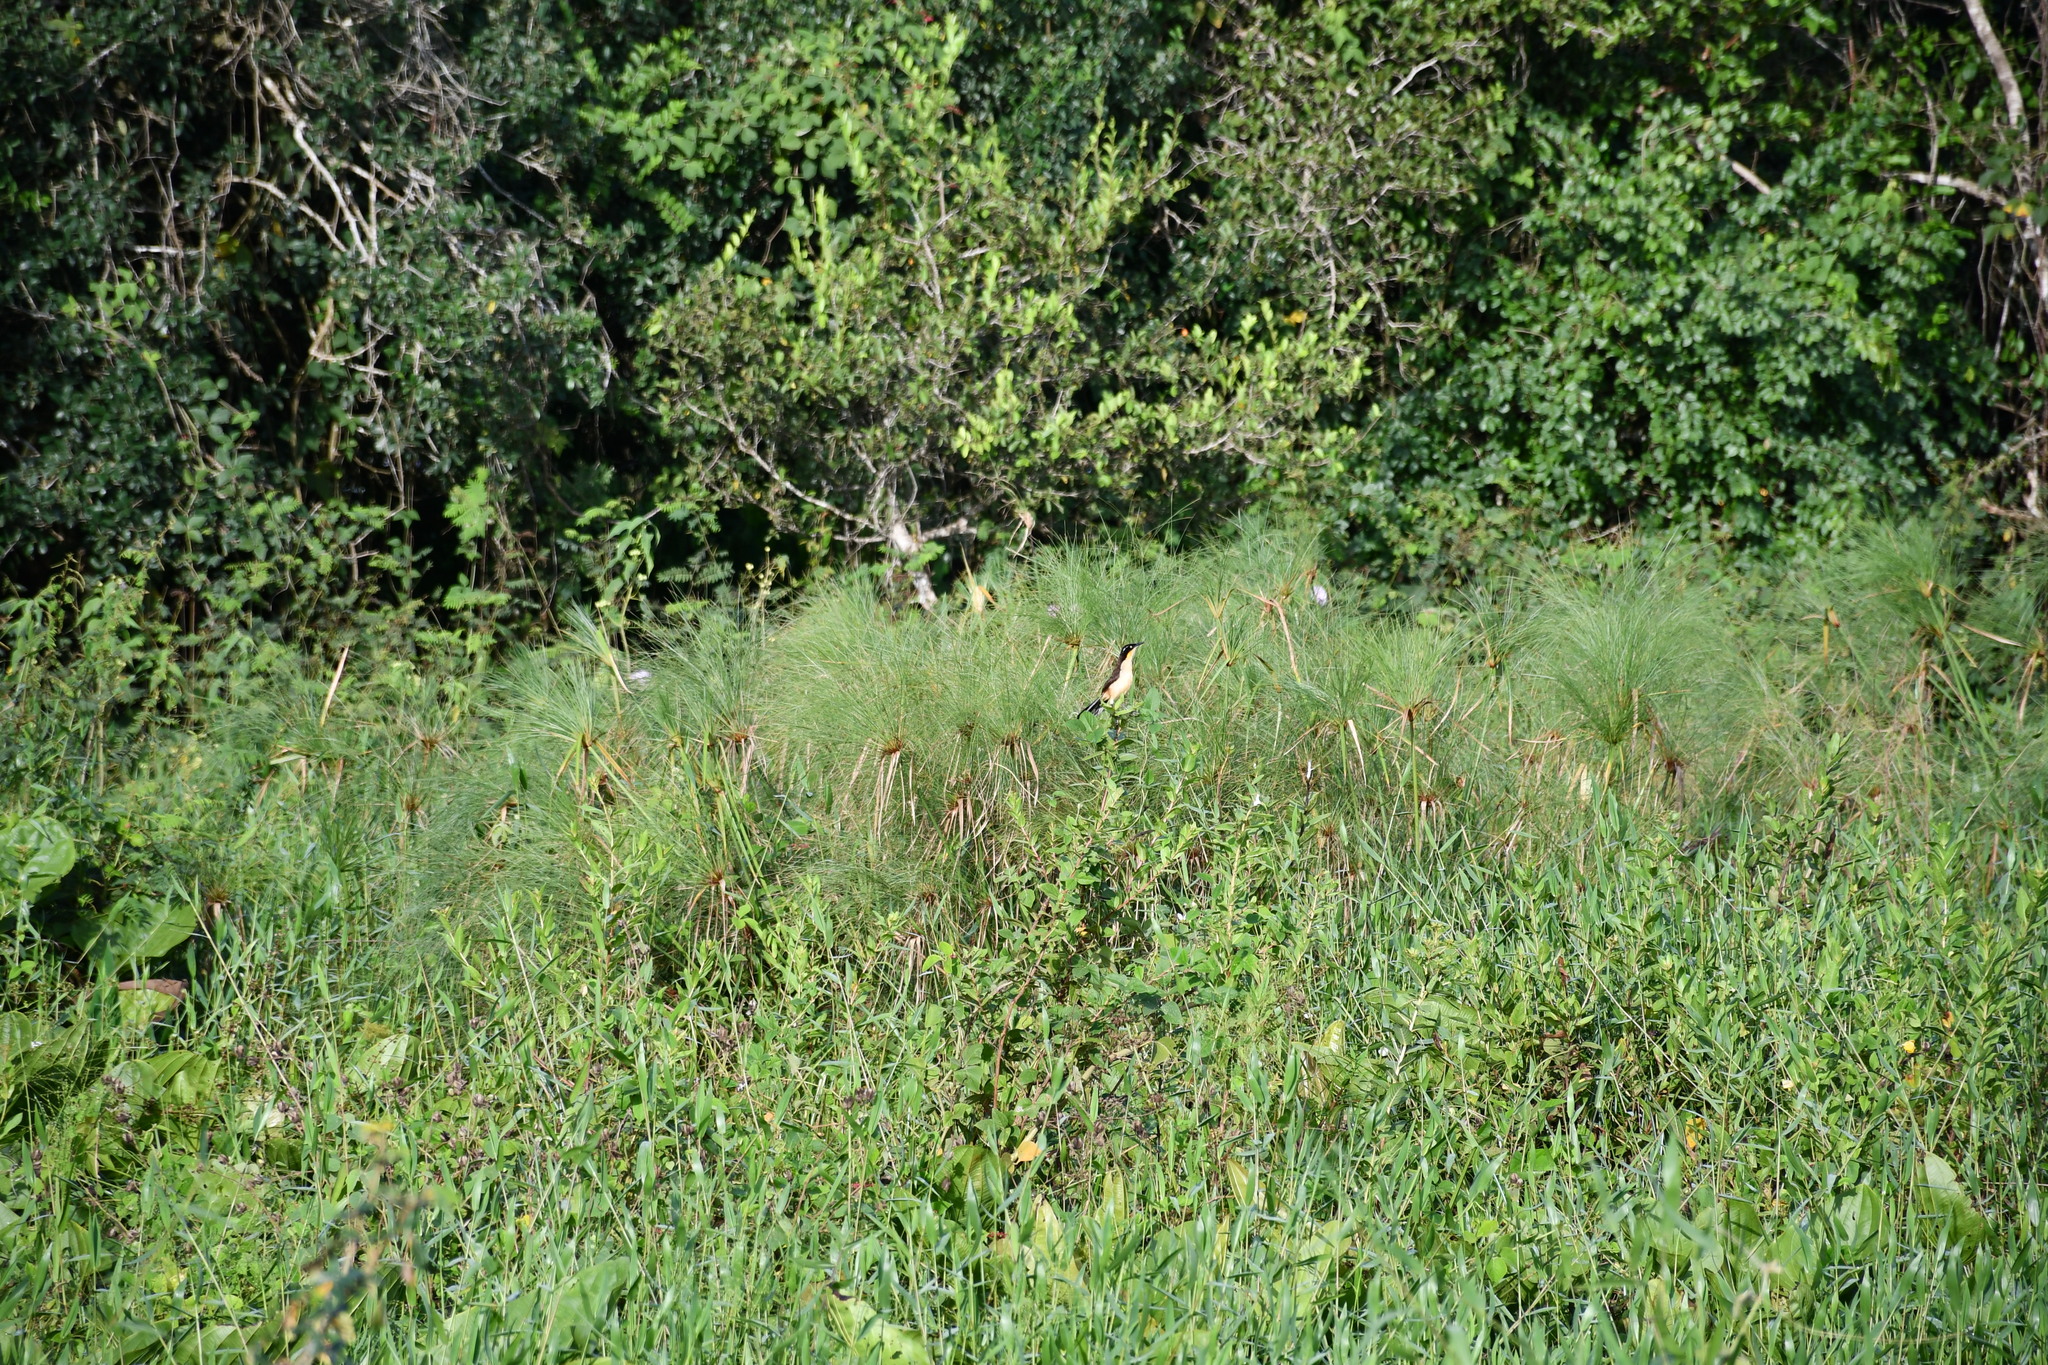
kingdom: Animalia
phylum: Chordata
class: Aves
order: Passeriformes
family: Donacobiidae
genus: Donacobius
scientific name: Donacobius atricapilla
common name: Black-capped donacobius
